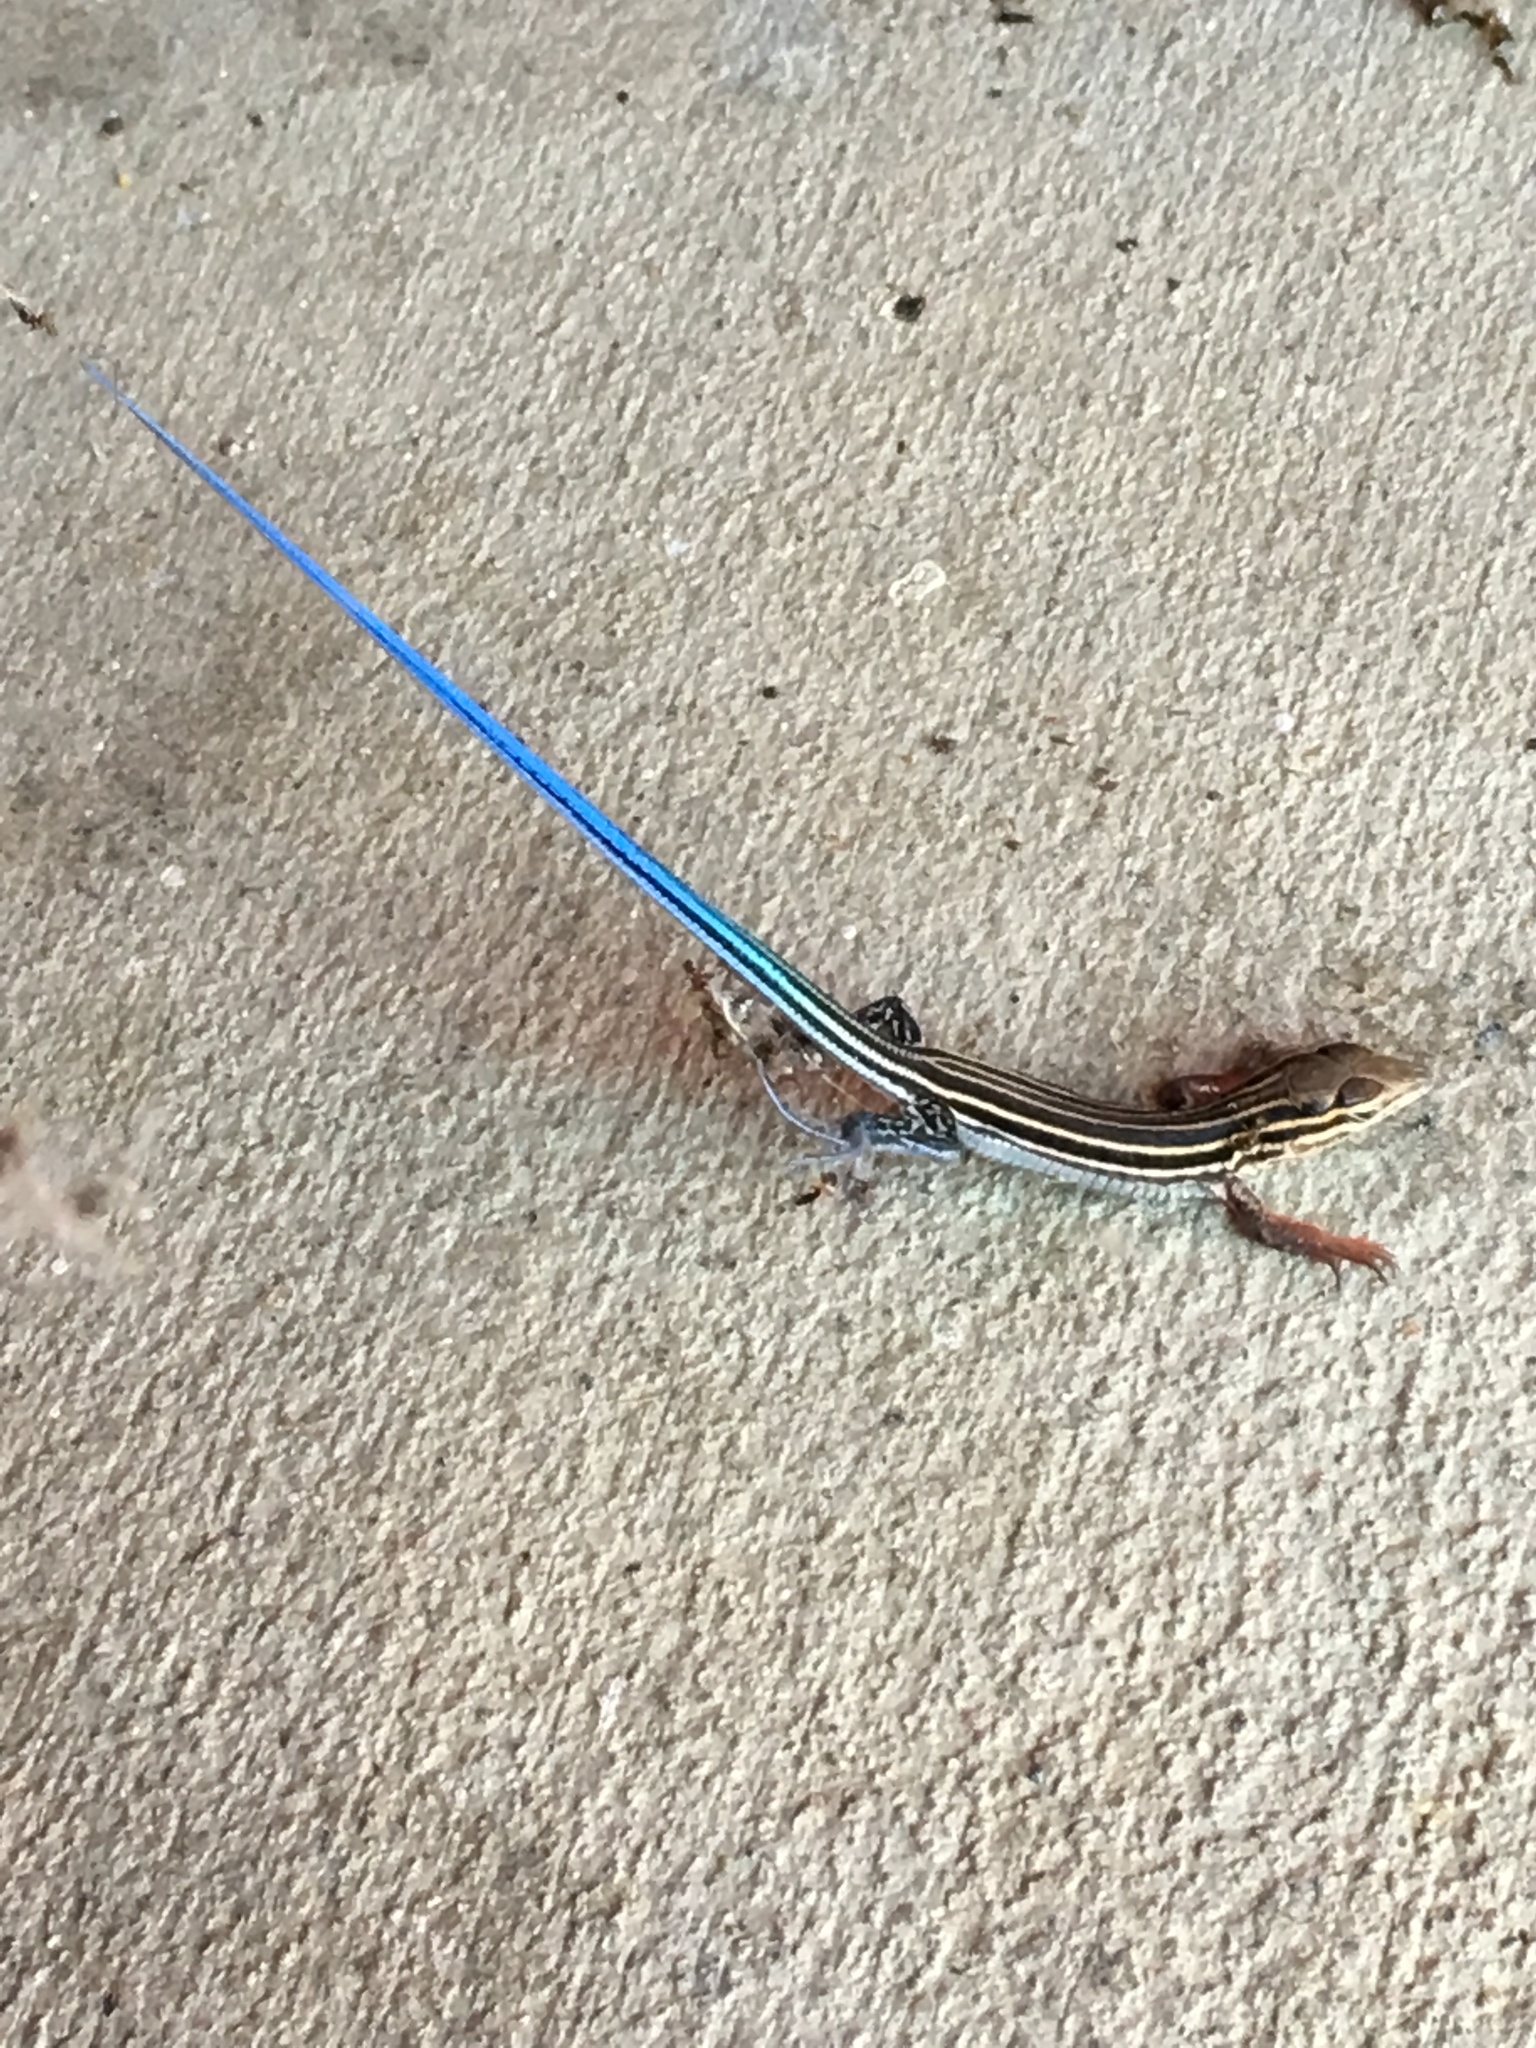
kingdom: Animalia
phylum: Chordata
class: Squamata
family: Teiidae
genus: Aspidoscelis
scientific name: Aspidoscelis hyperythrus
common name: Orange-throated race-runner
